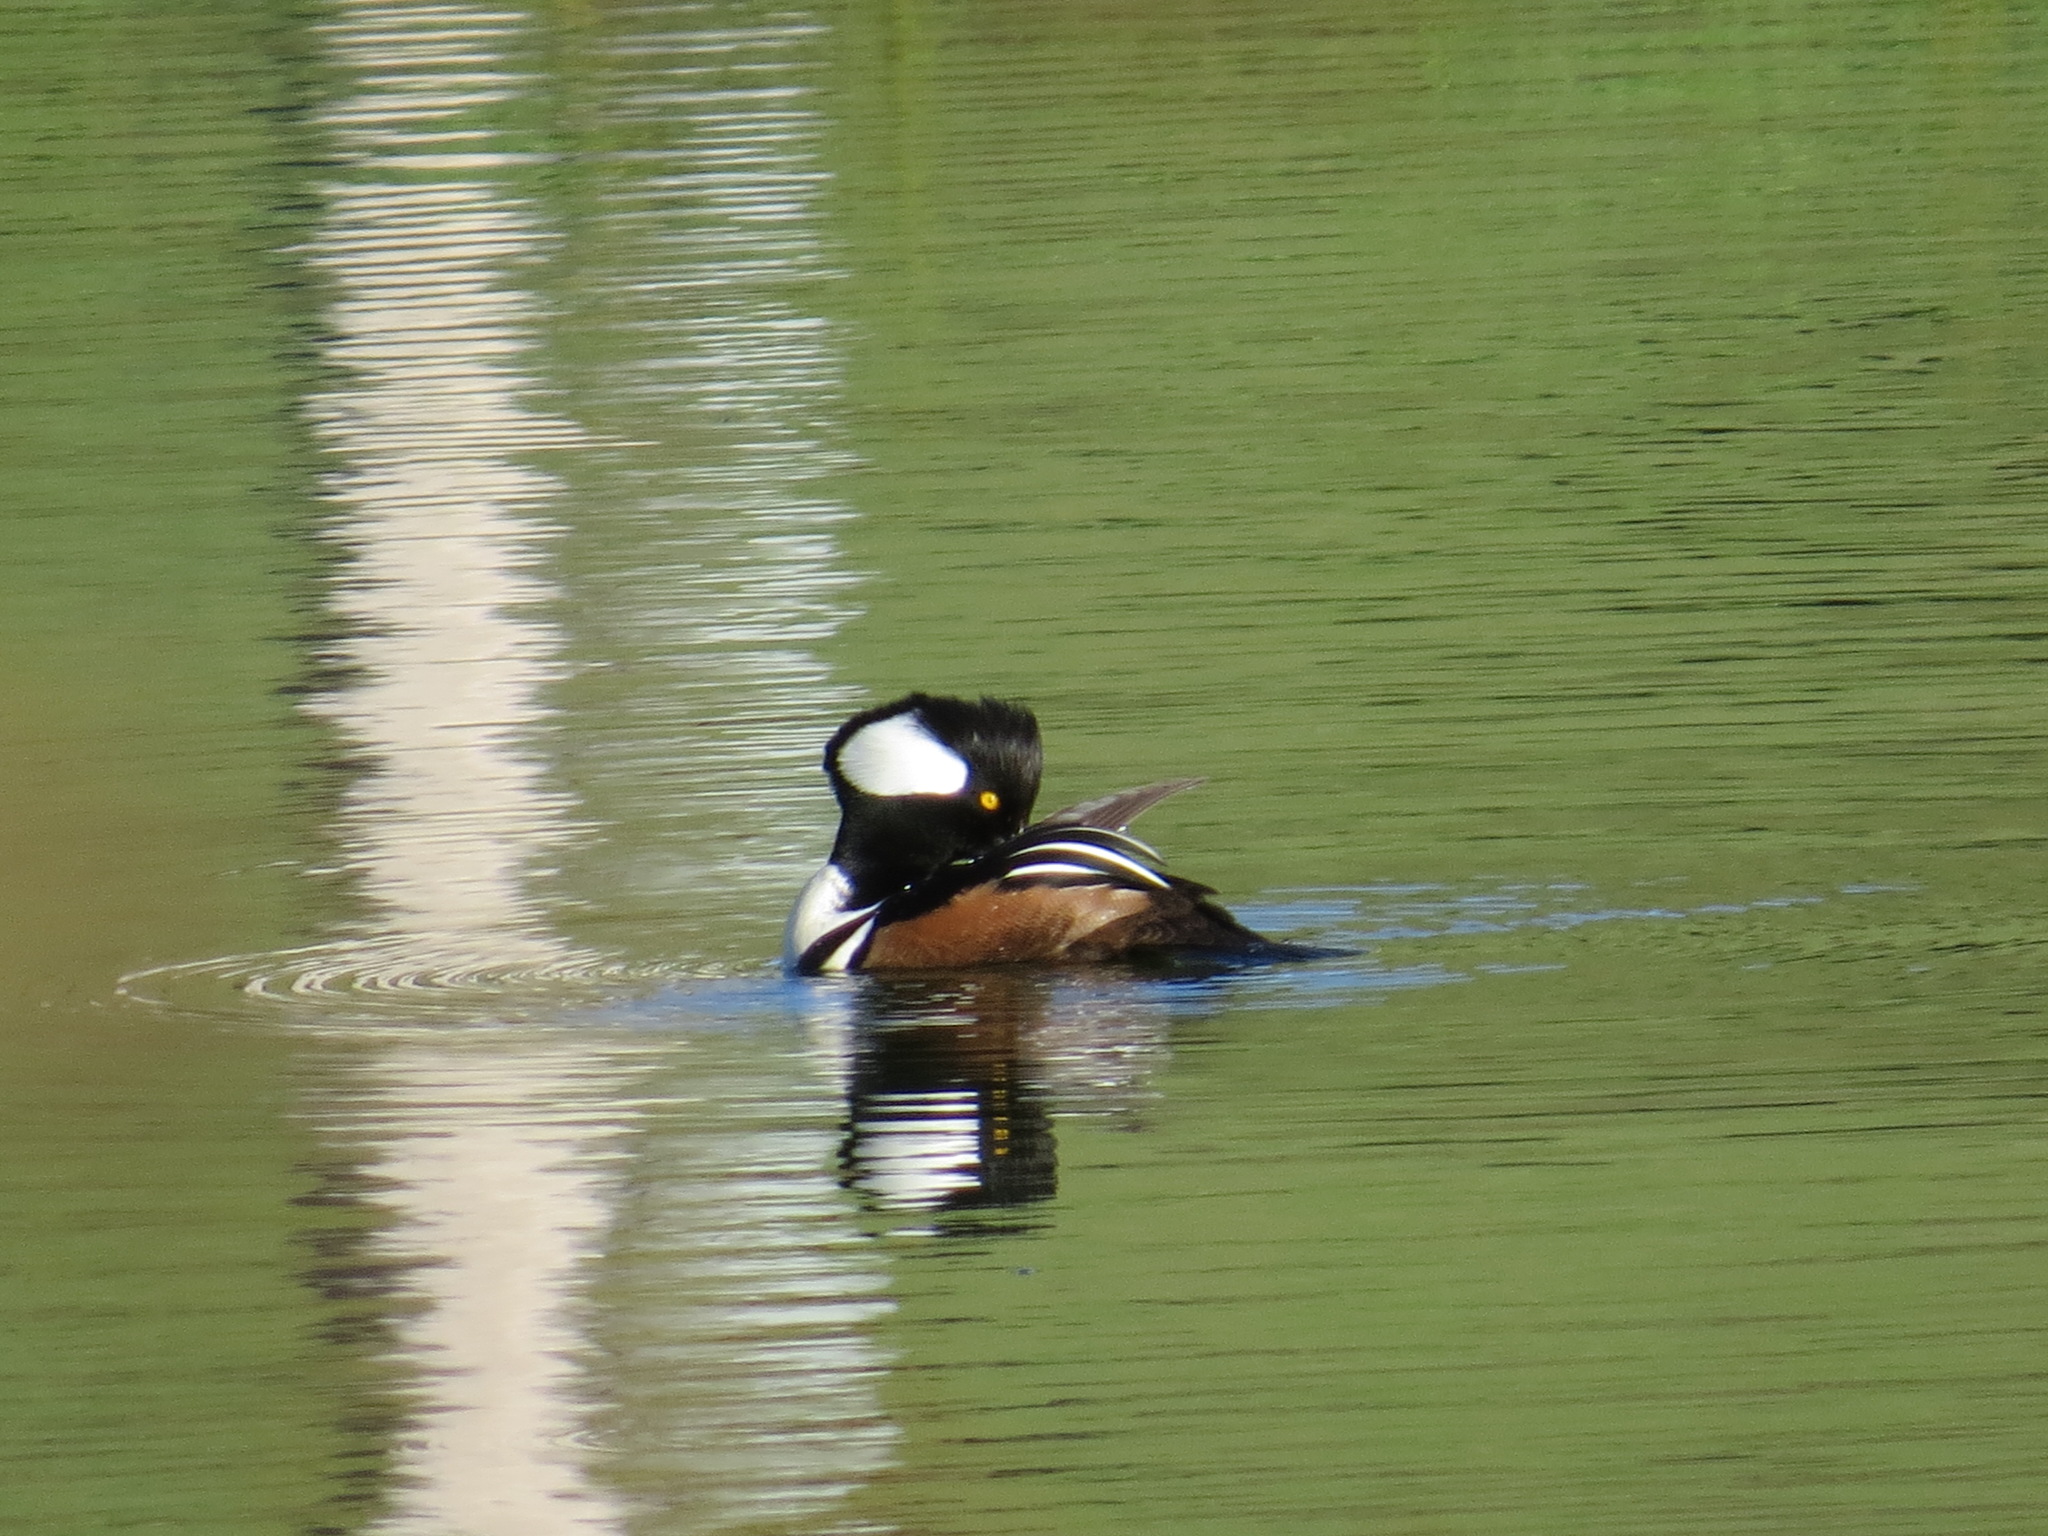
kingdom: Animalia
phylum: Chordata
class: Aves
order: Anseriformes
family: Anatidae
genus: Lophodytes
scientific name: Lophodytes cucullatus
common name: Hooded merganser
